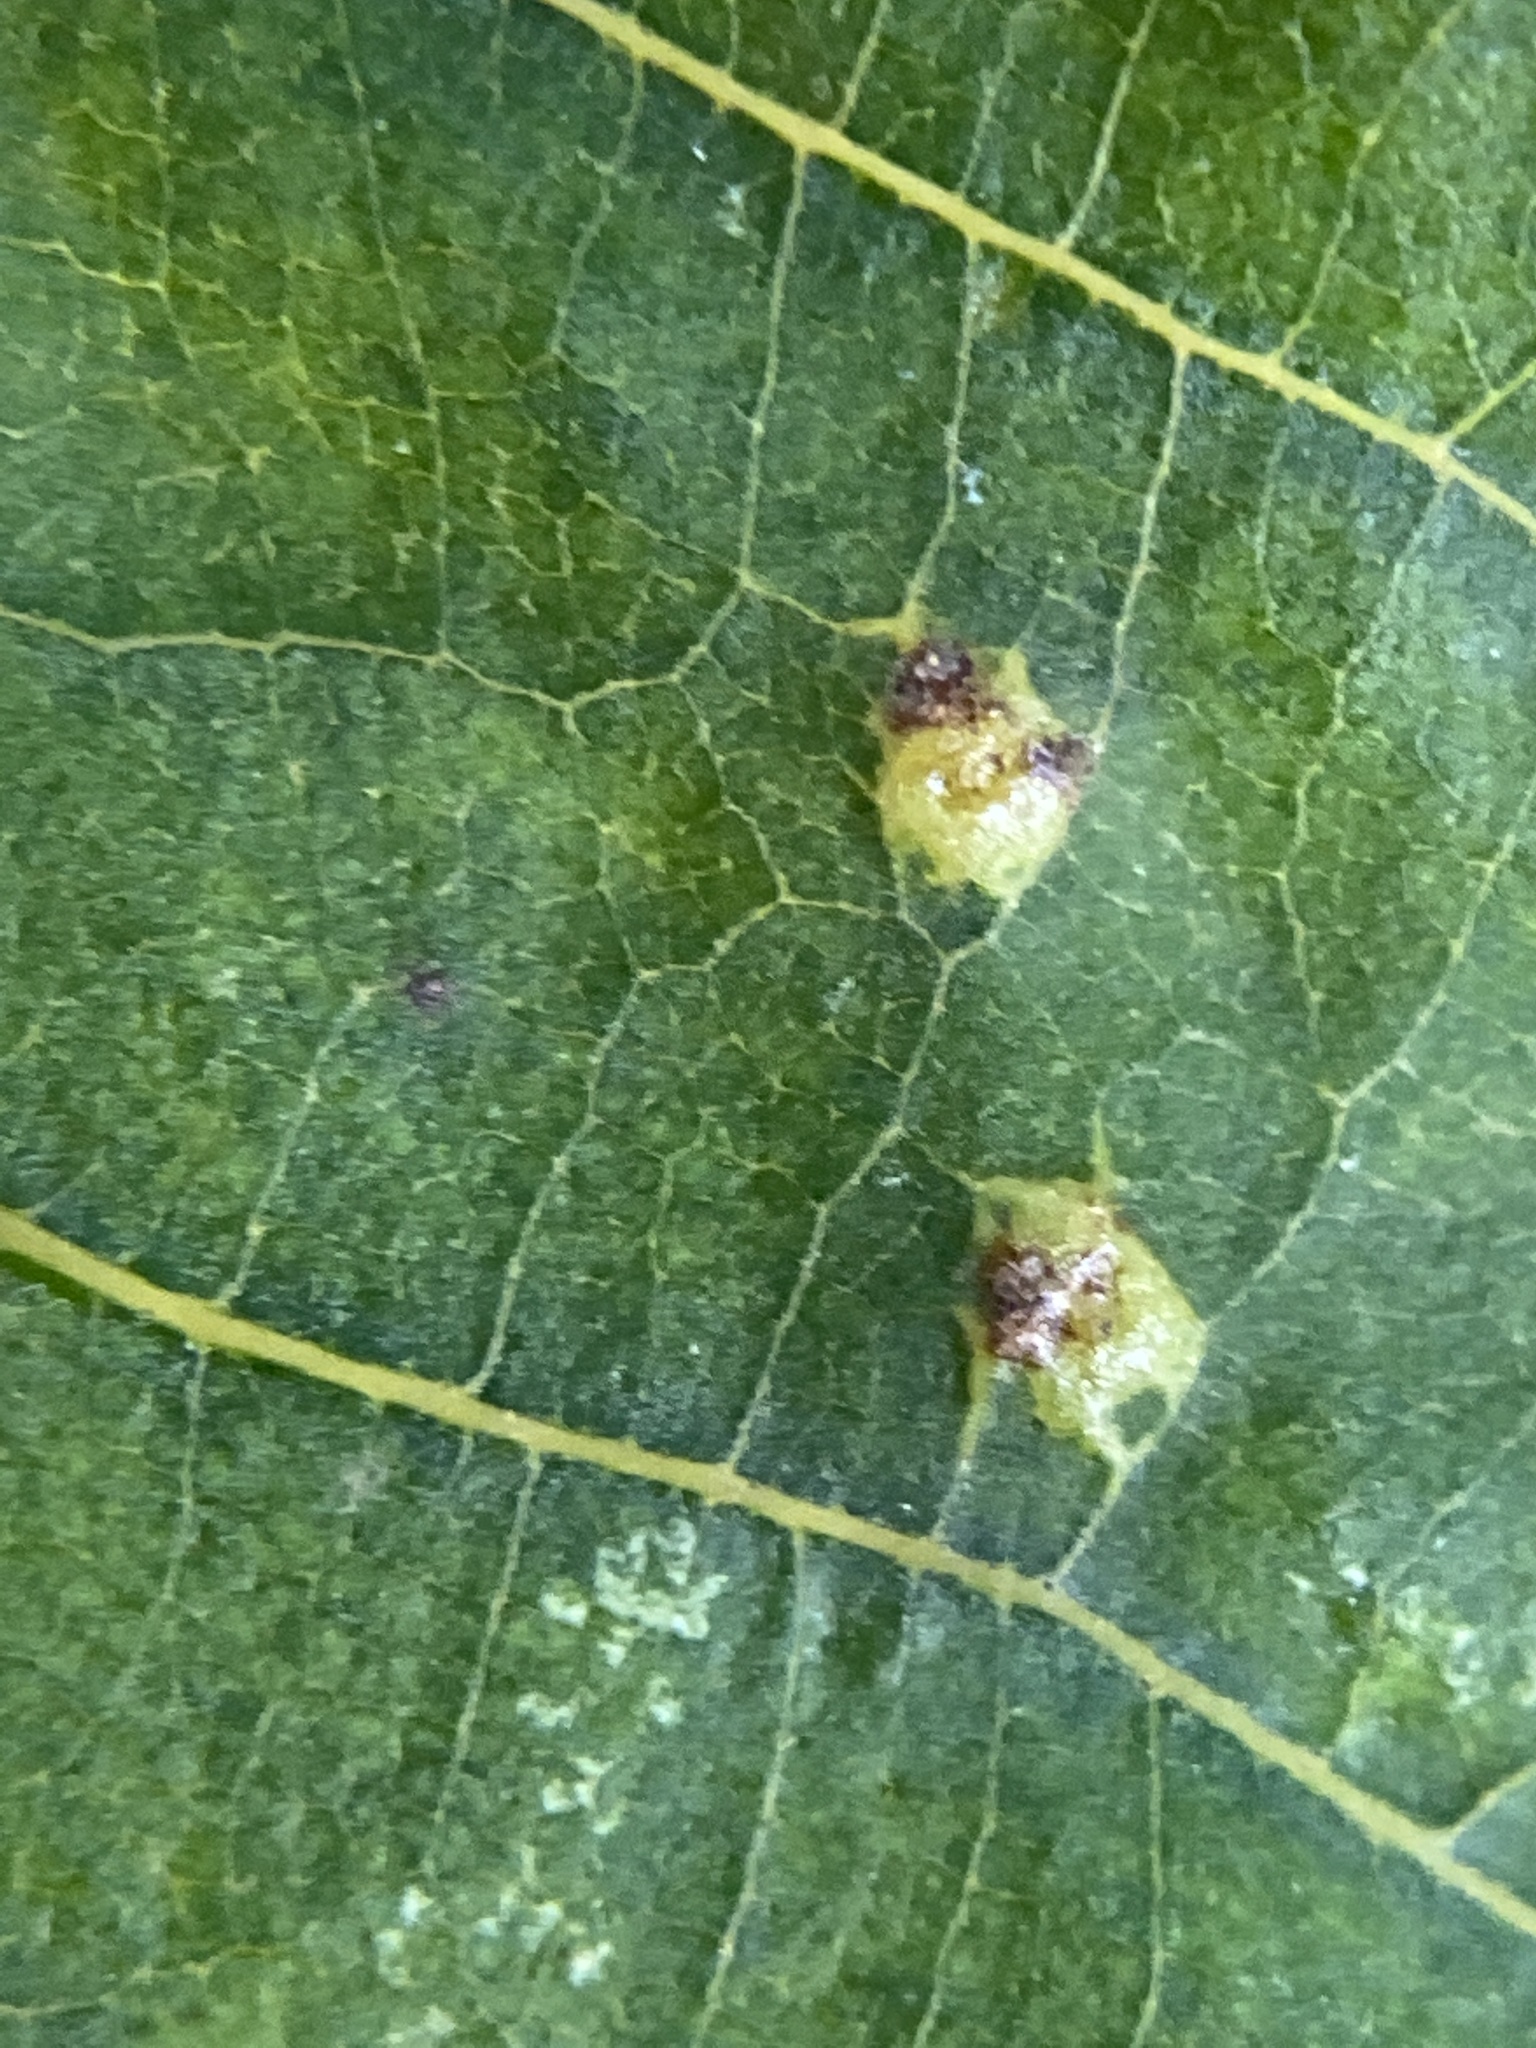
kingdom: Animalia
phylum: Arthropoda
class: Insecta
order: Diptera
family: Cecidomyiidae
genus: Caryomyia
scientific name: Caryomyia purpurea
